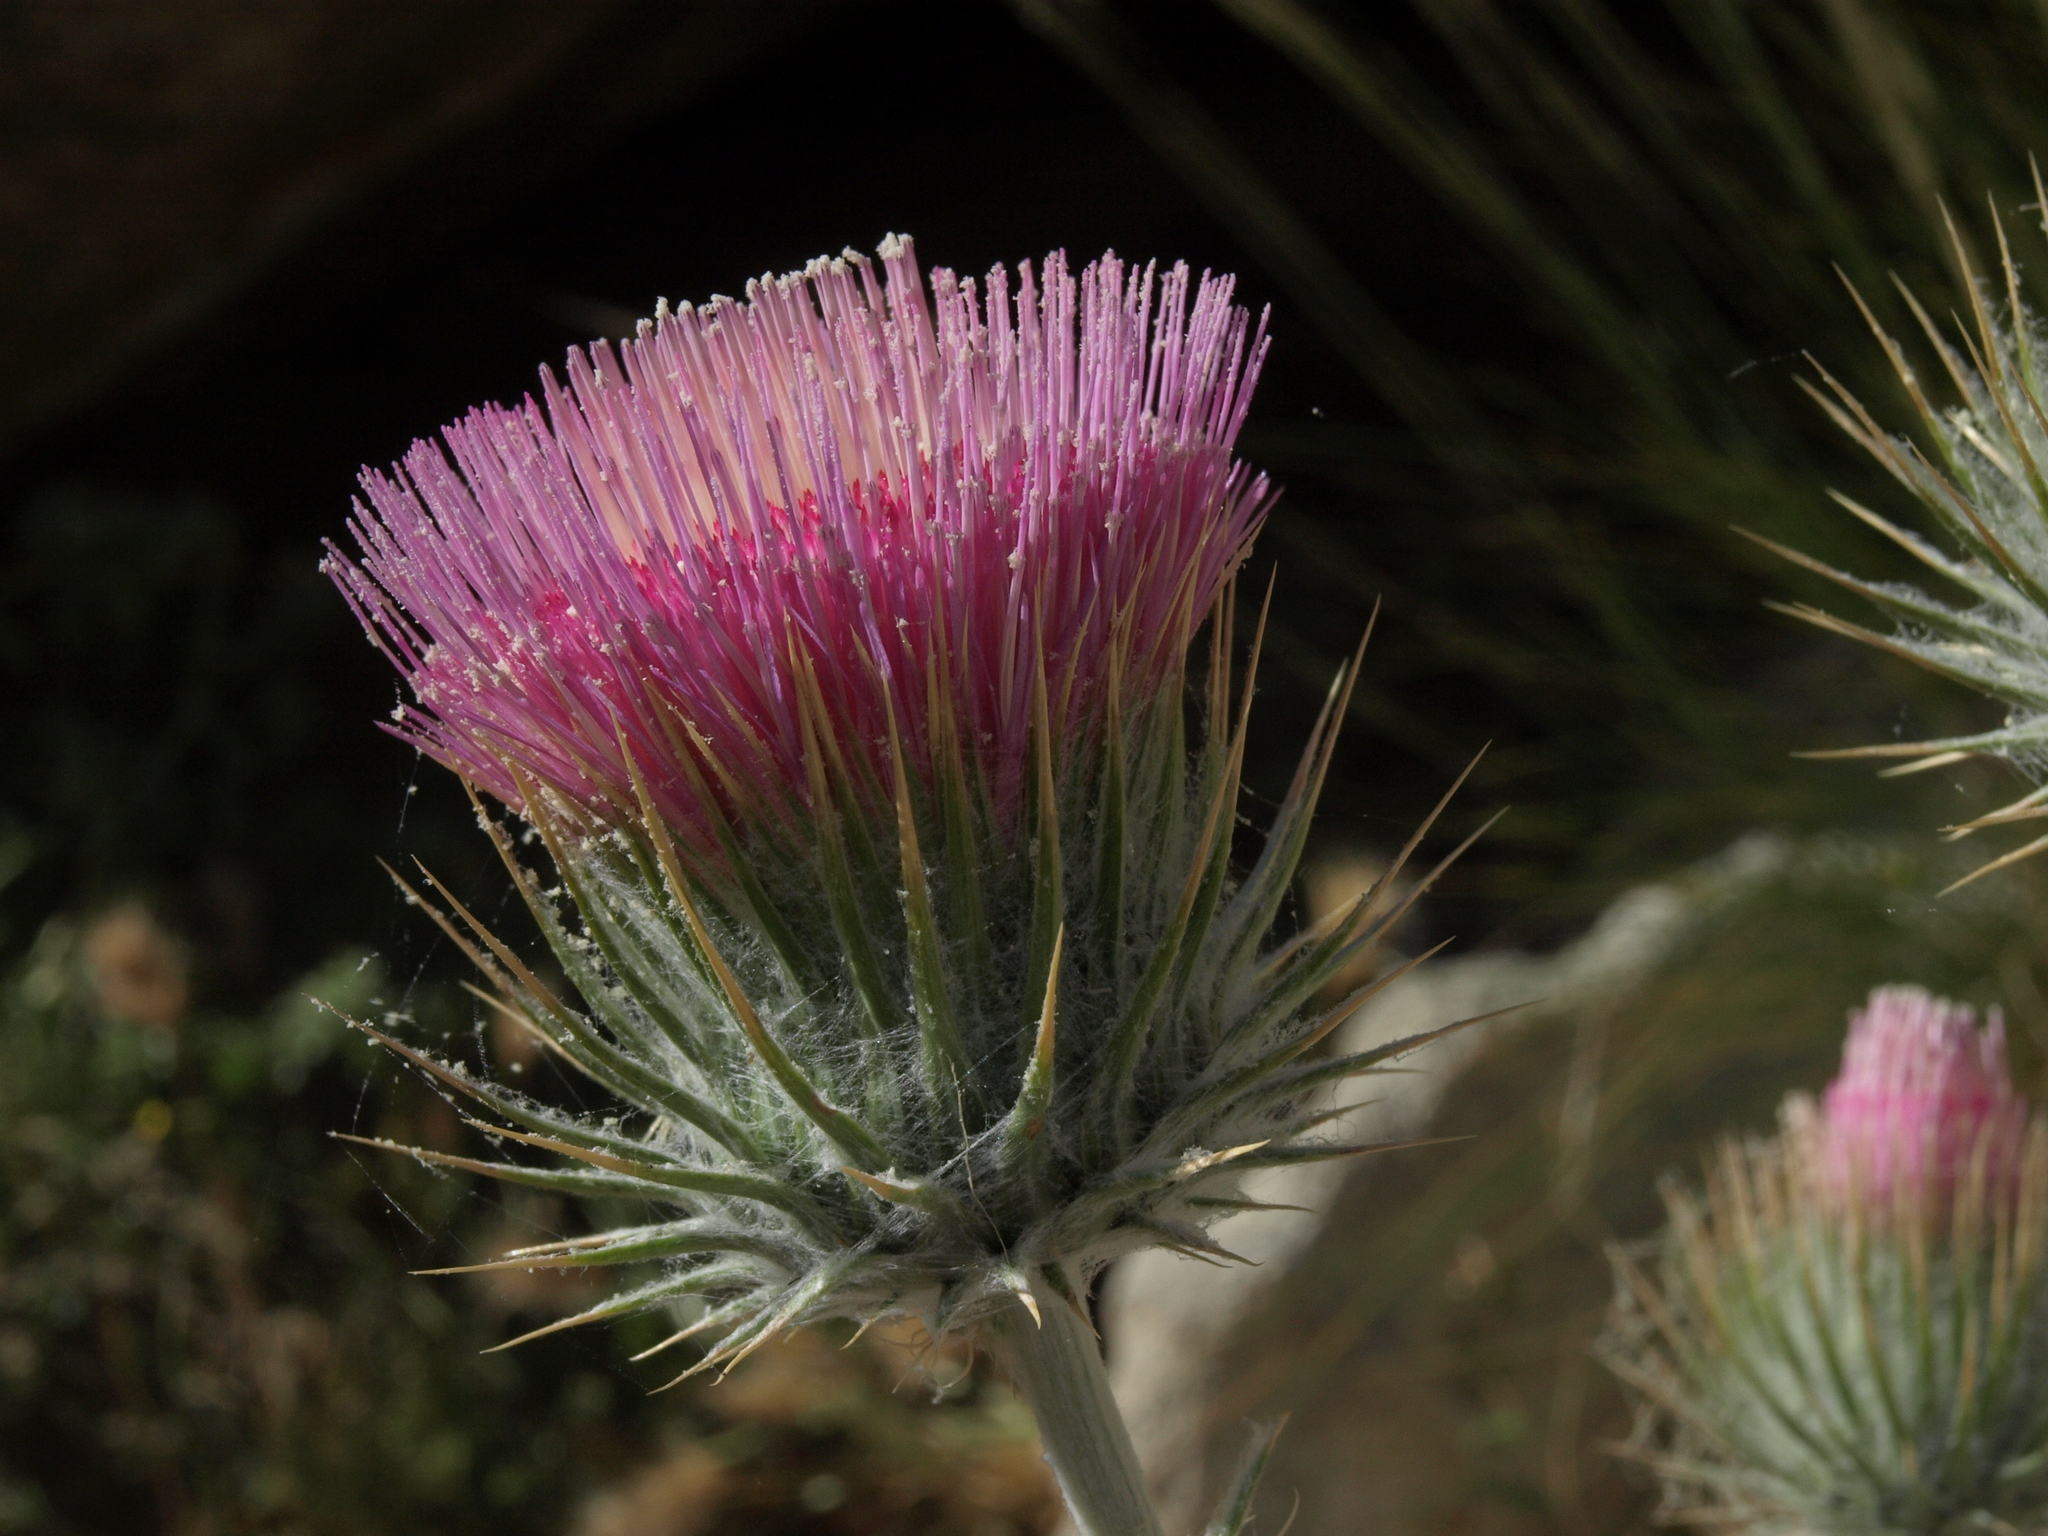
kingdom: Plantae
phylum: Tracheophyta
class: Magnoliopsida
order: Asterales
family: Asteraceae
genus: Cirsium
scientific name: Cirsium occidentale
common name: Western thistle
